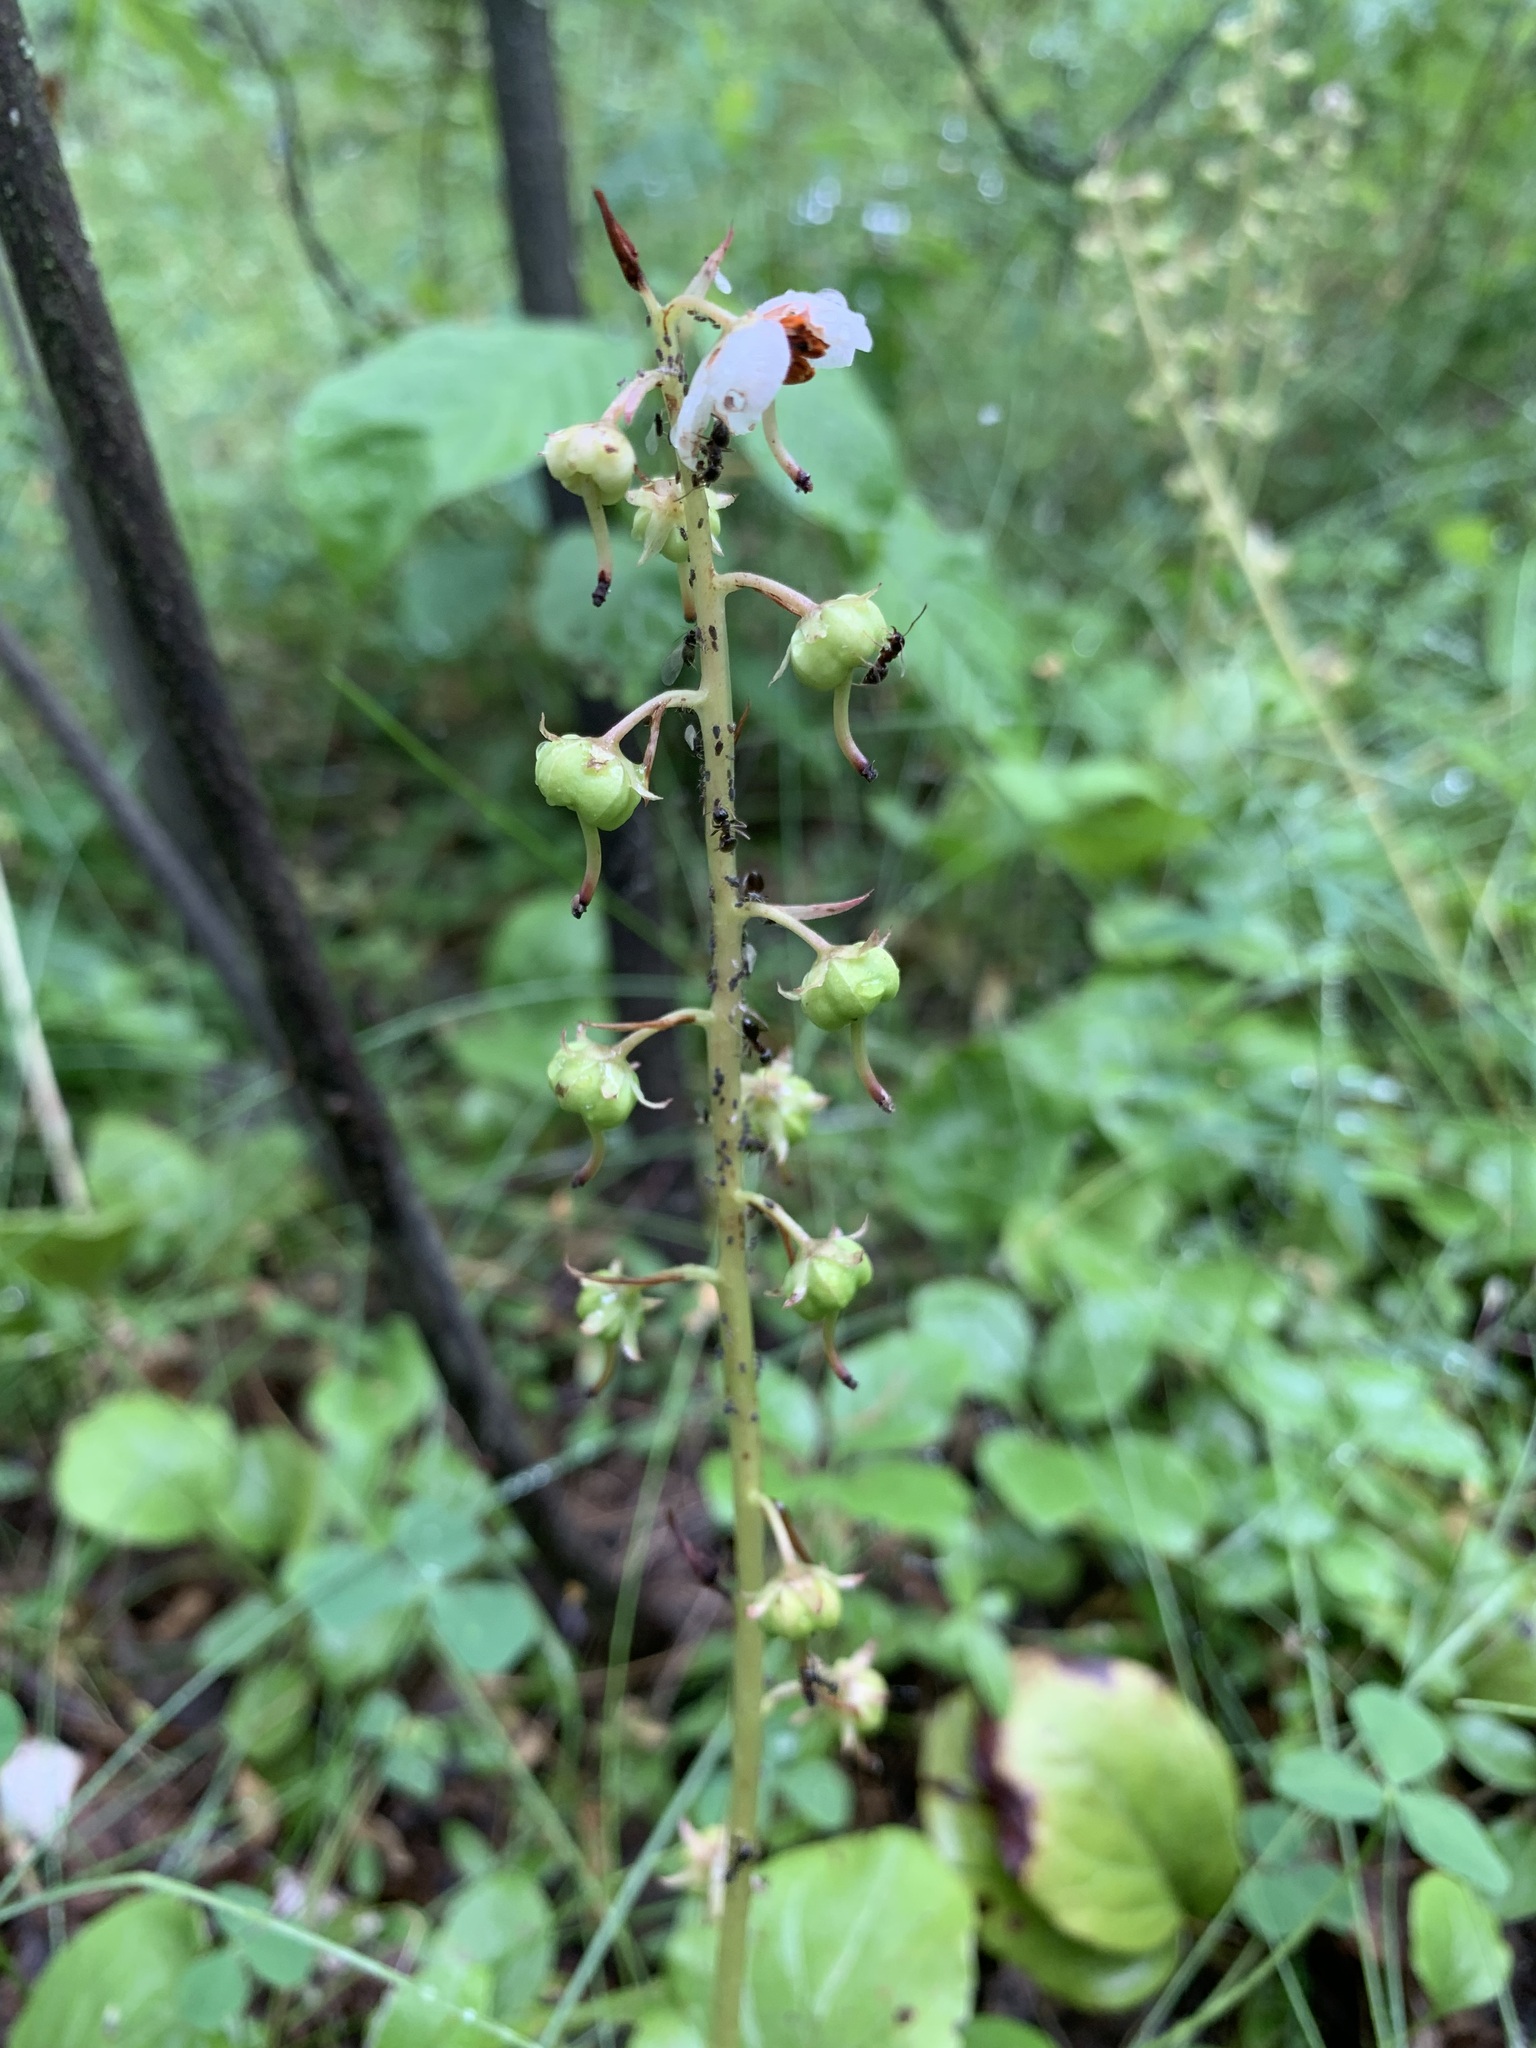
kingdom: Plantae
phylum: Tracheophyta
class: Magnoliopsida
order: Ericales
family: Ericaceae
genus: Pyrola
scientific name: Pyrola rotundifolia
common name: Round-leaved wintergreen
